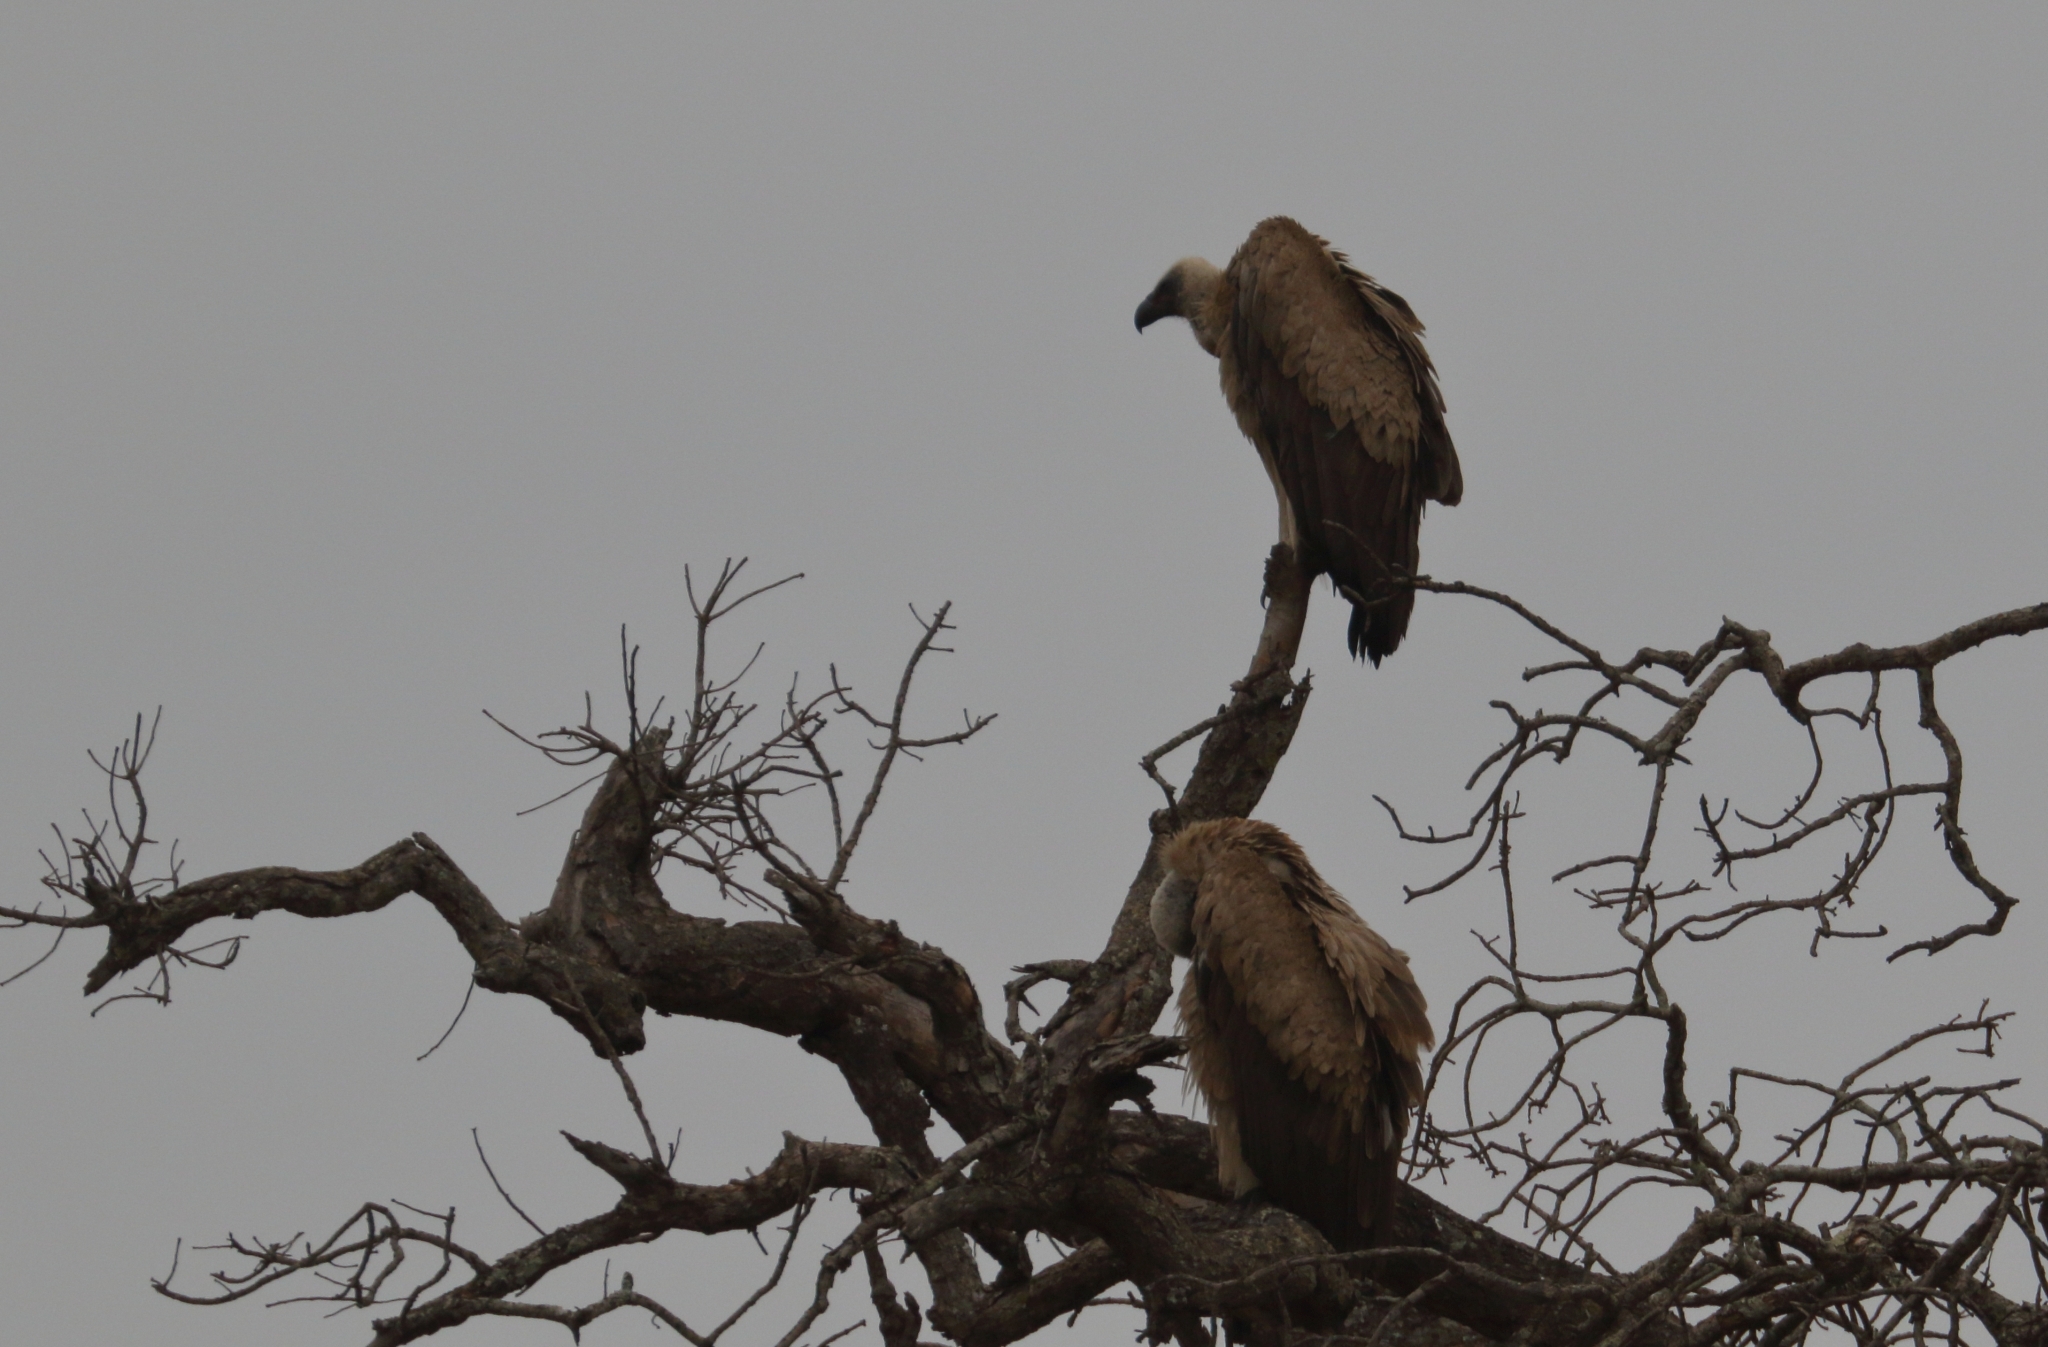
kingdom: Animalia
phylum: Chordata
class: Aves
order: Accipitriformes
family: Accipitridae
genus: Gyps
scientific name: Gyps africanus
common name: White-backed vulture
